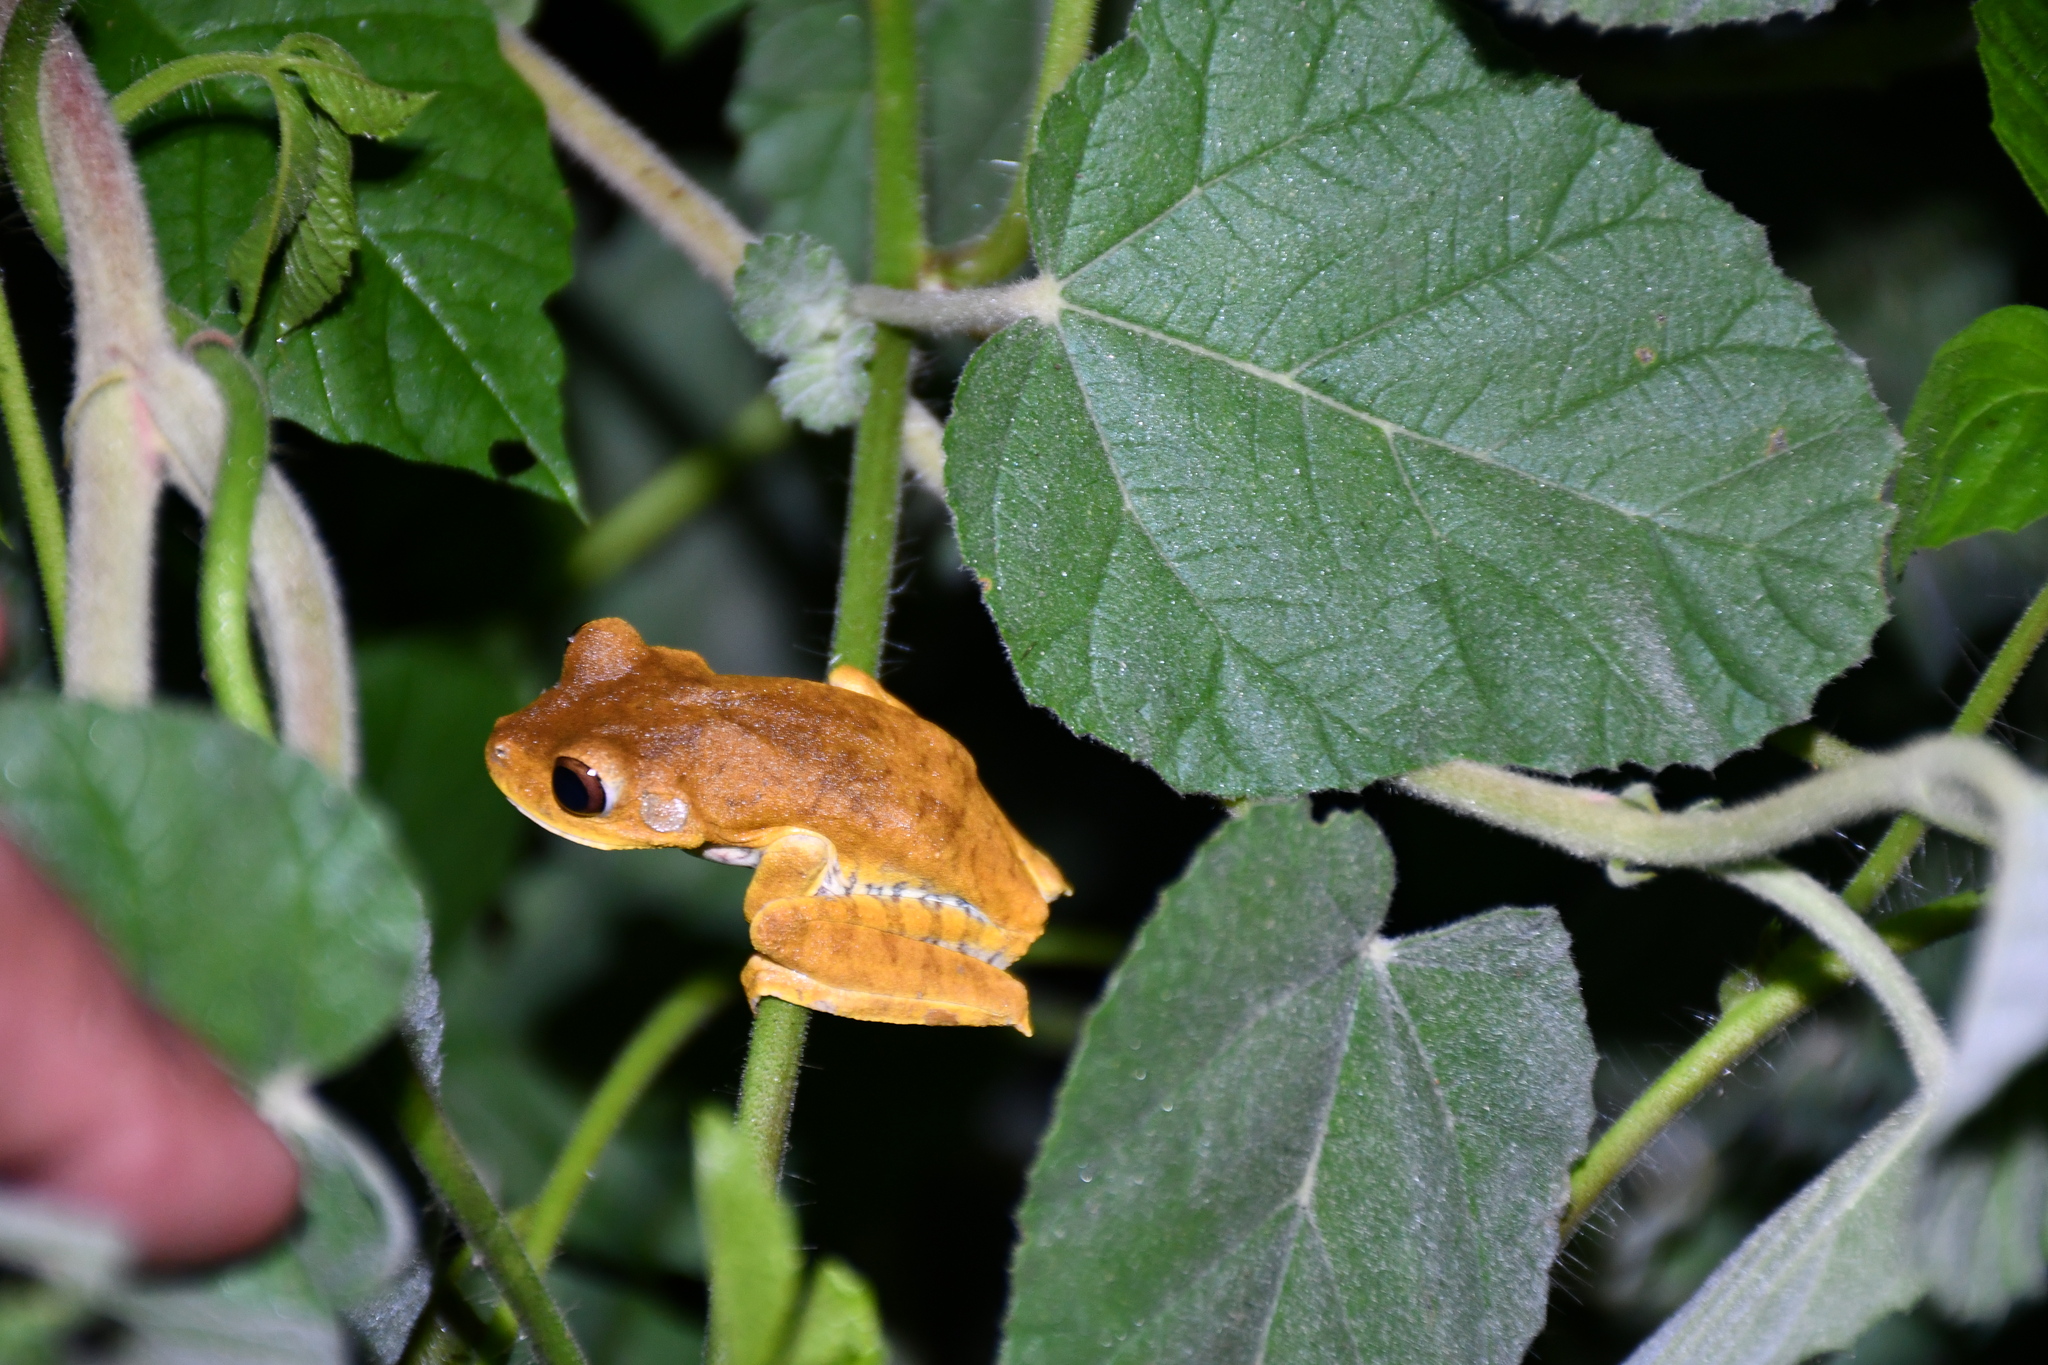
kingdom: Animalia
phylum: Chordata
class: Amphibia
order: Anura
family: Hylidae
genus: Boana
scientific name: Boana geographica
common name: Map treefrog
